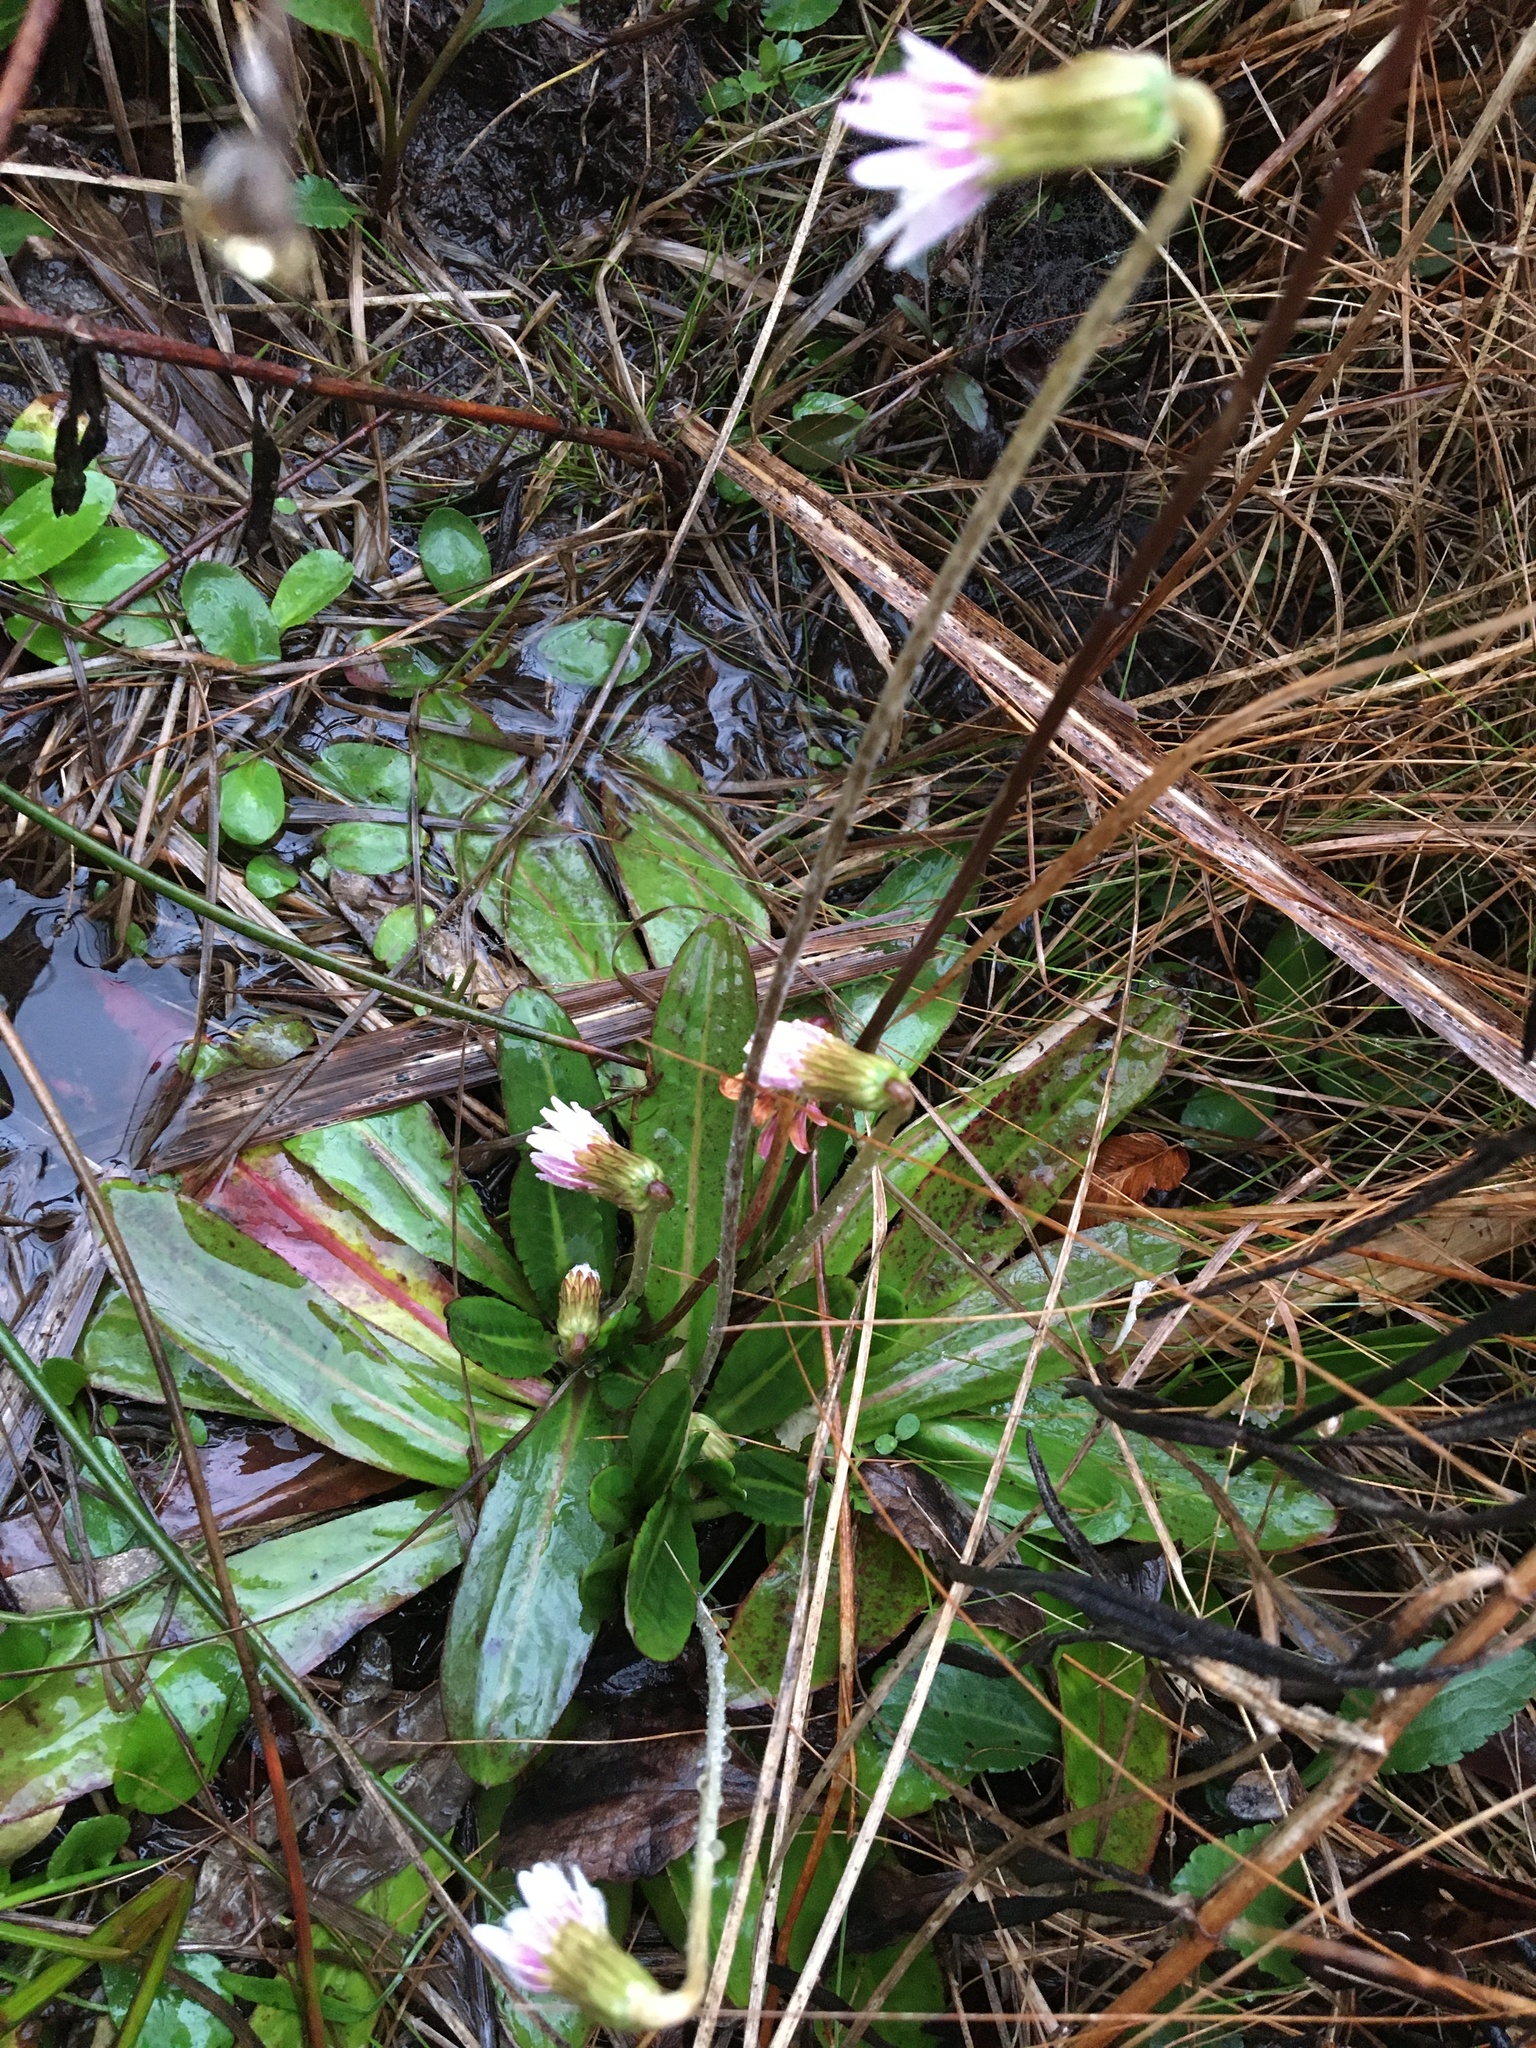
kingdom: Plantae
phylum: Tracheophyta
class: Magnoliopsida
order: Asterales
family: Asteraceae
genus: Chaptalia
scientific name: Chaptalia tomentosa
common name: Woolly sunbonnet
